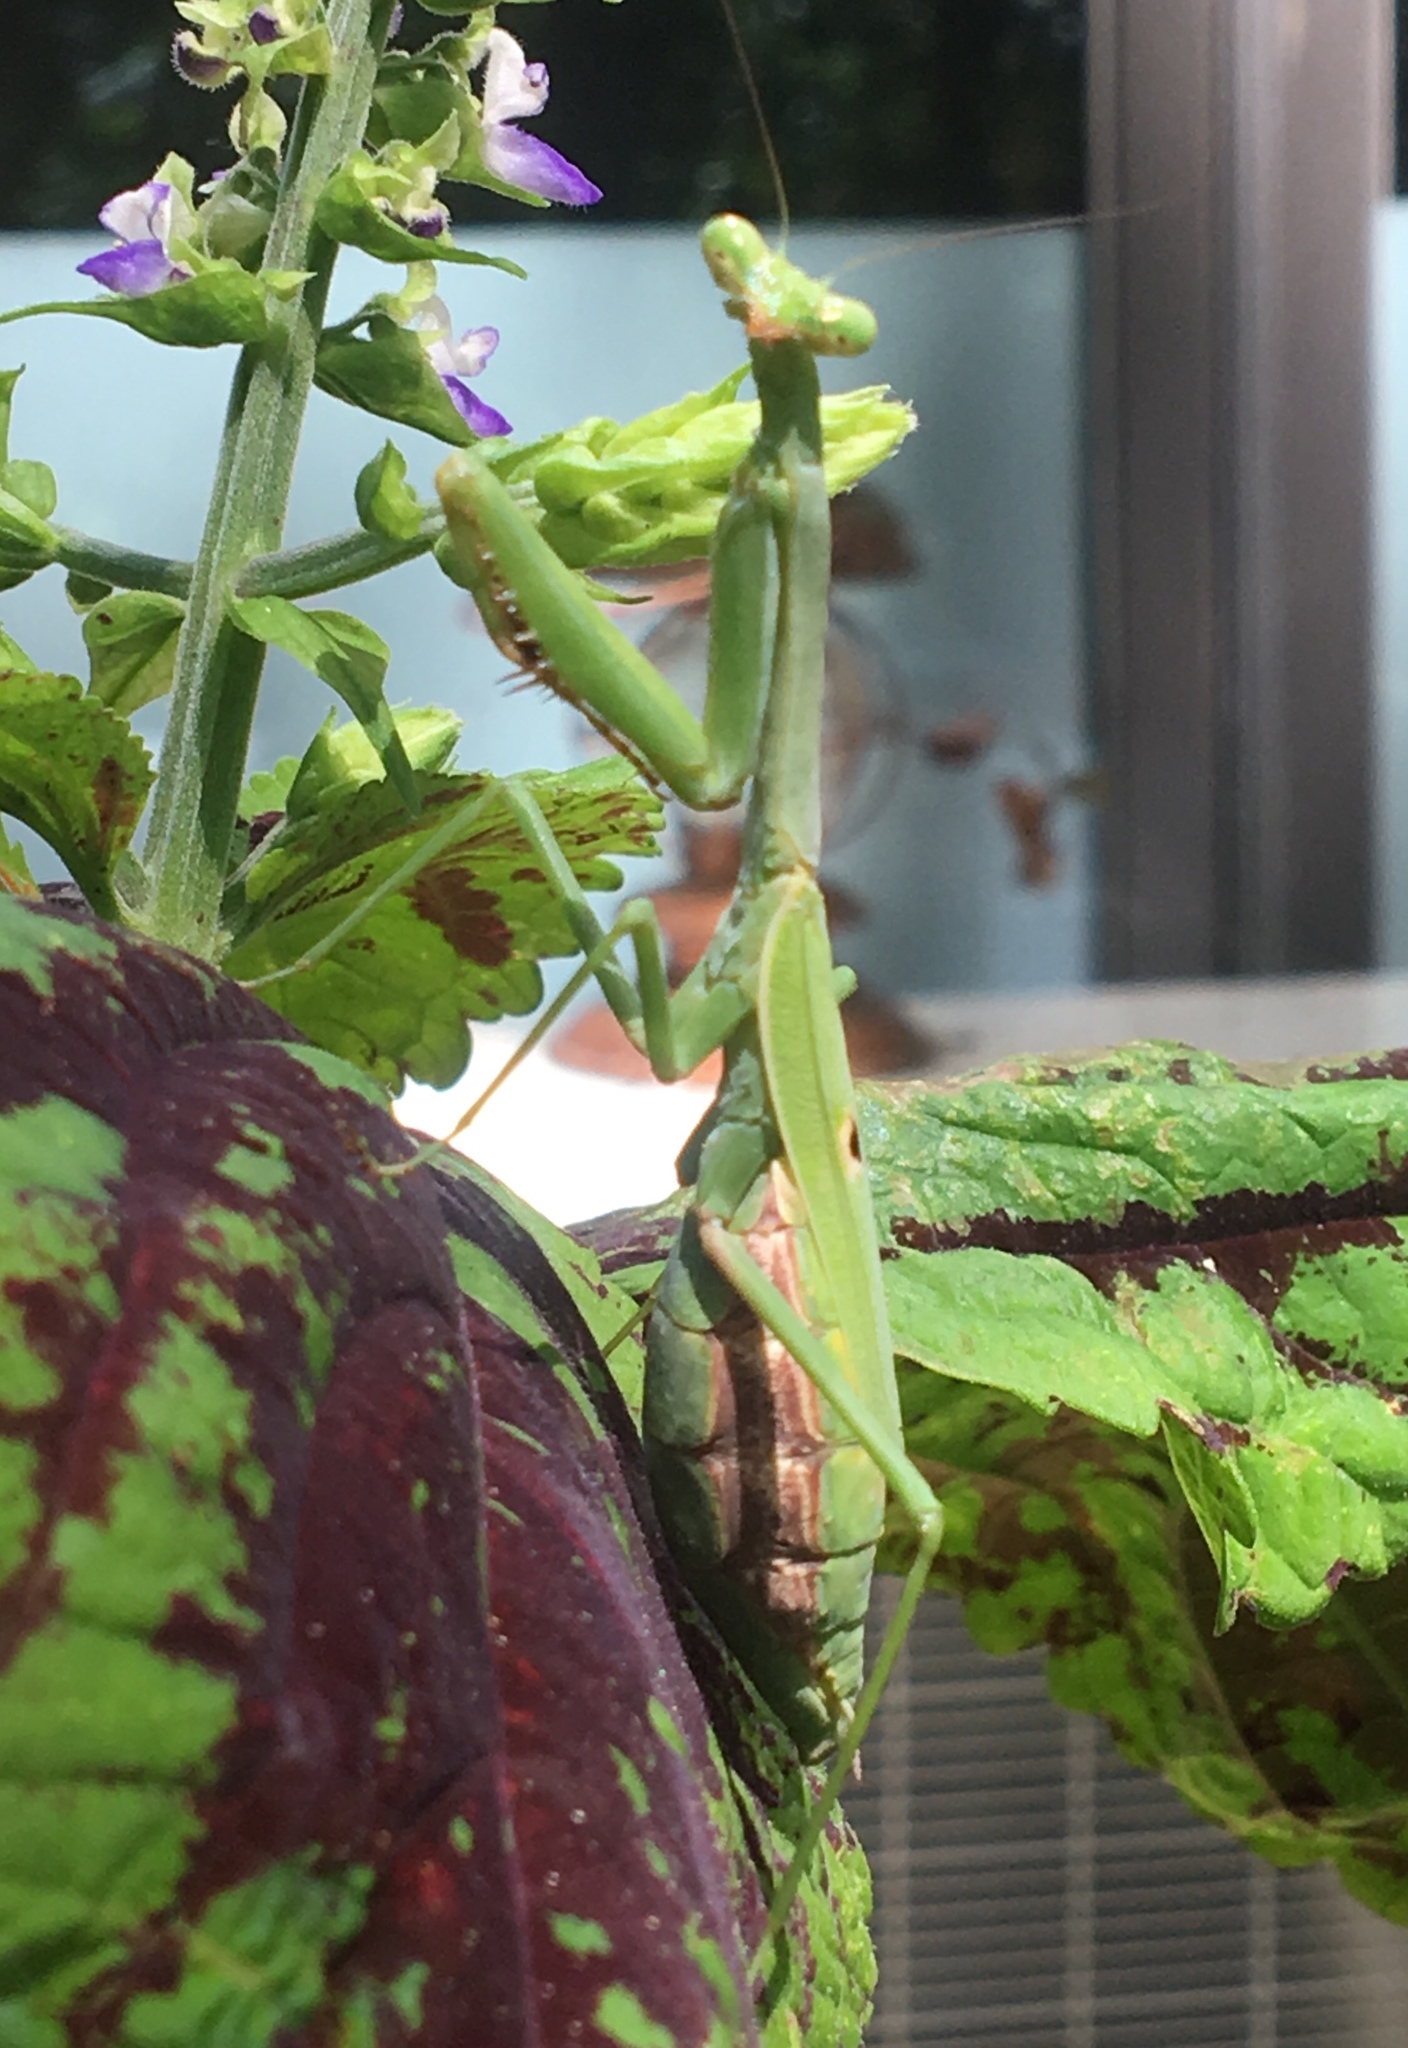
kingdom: Animalia
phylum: Arthropoda
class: Insecta
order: Mantodea
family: Mantidae
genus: Stagmomantis
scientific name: Stagmomantis carolina
